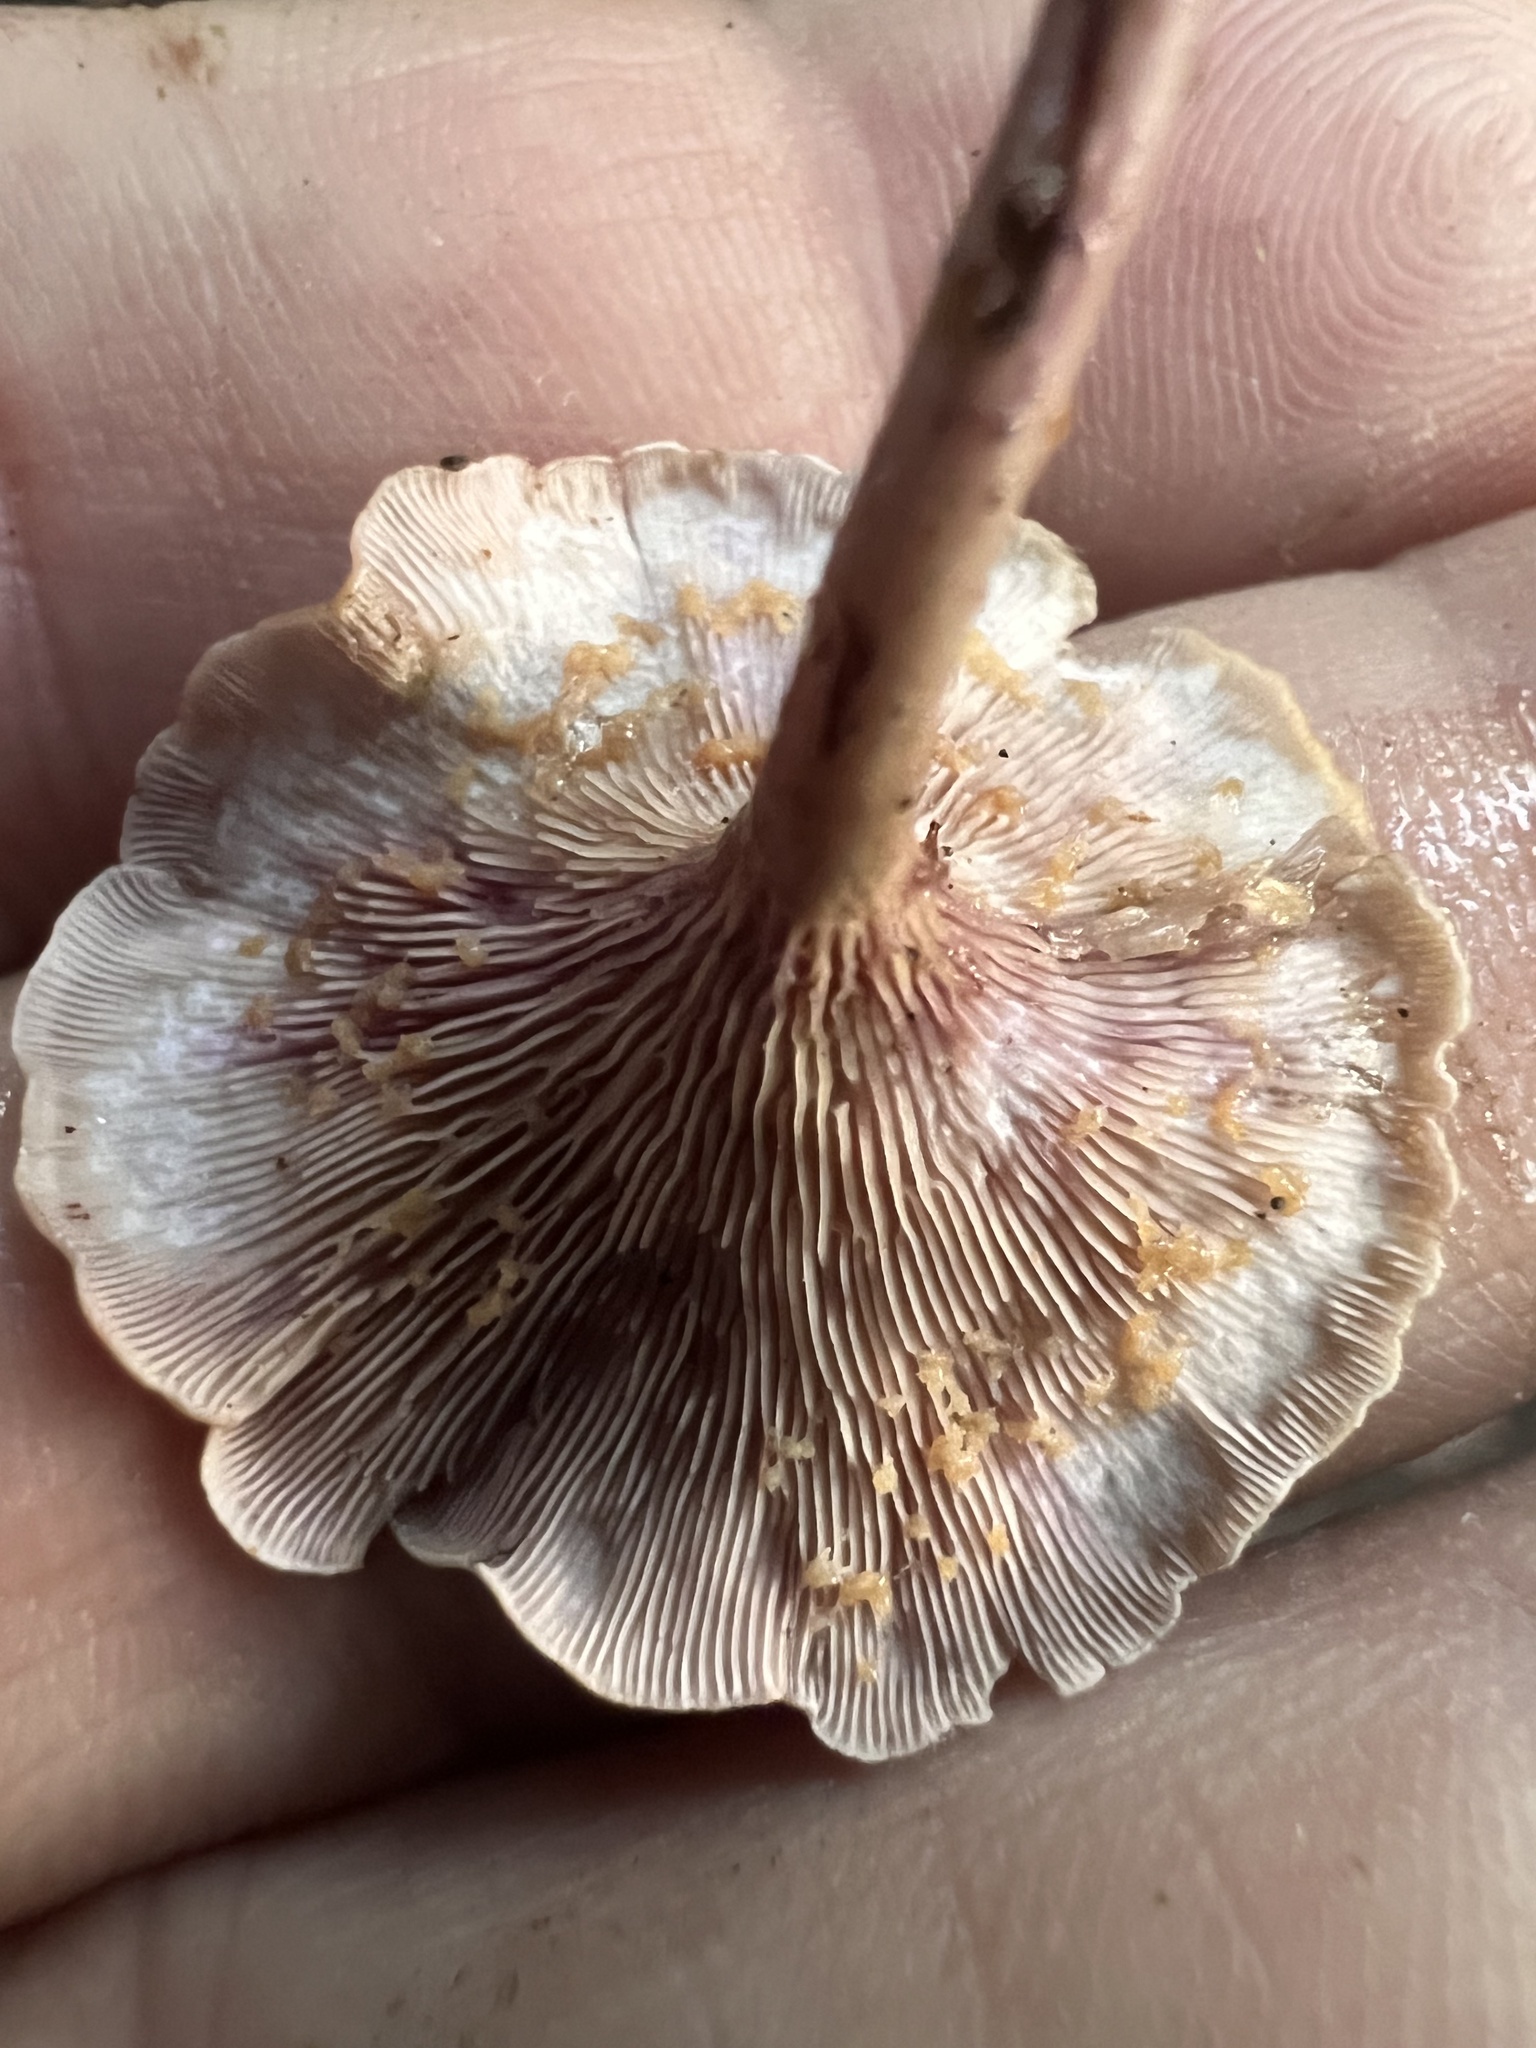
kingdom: Fungi
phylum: Basidiomycota
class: Agaricomycetes
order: Agaricales
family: Marasmiaceae
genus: Trogia
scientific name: Trogia cantharelloides
